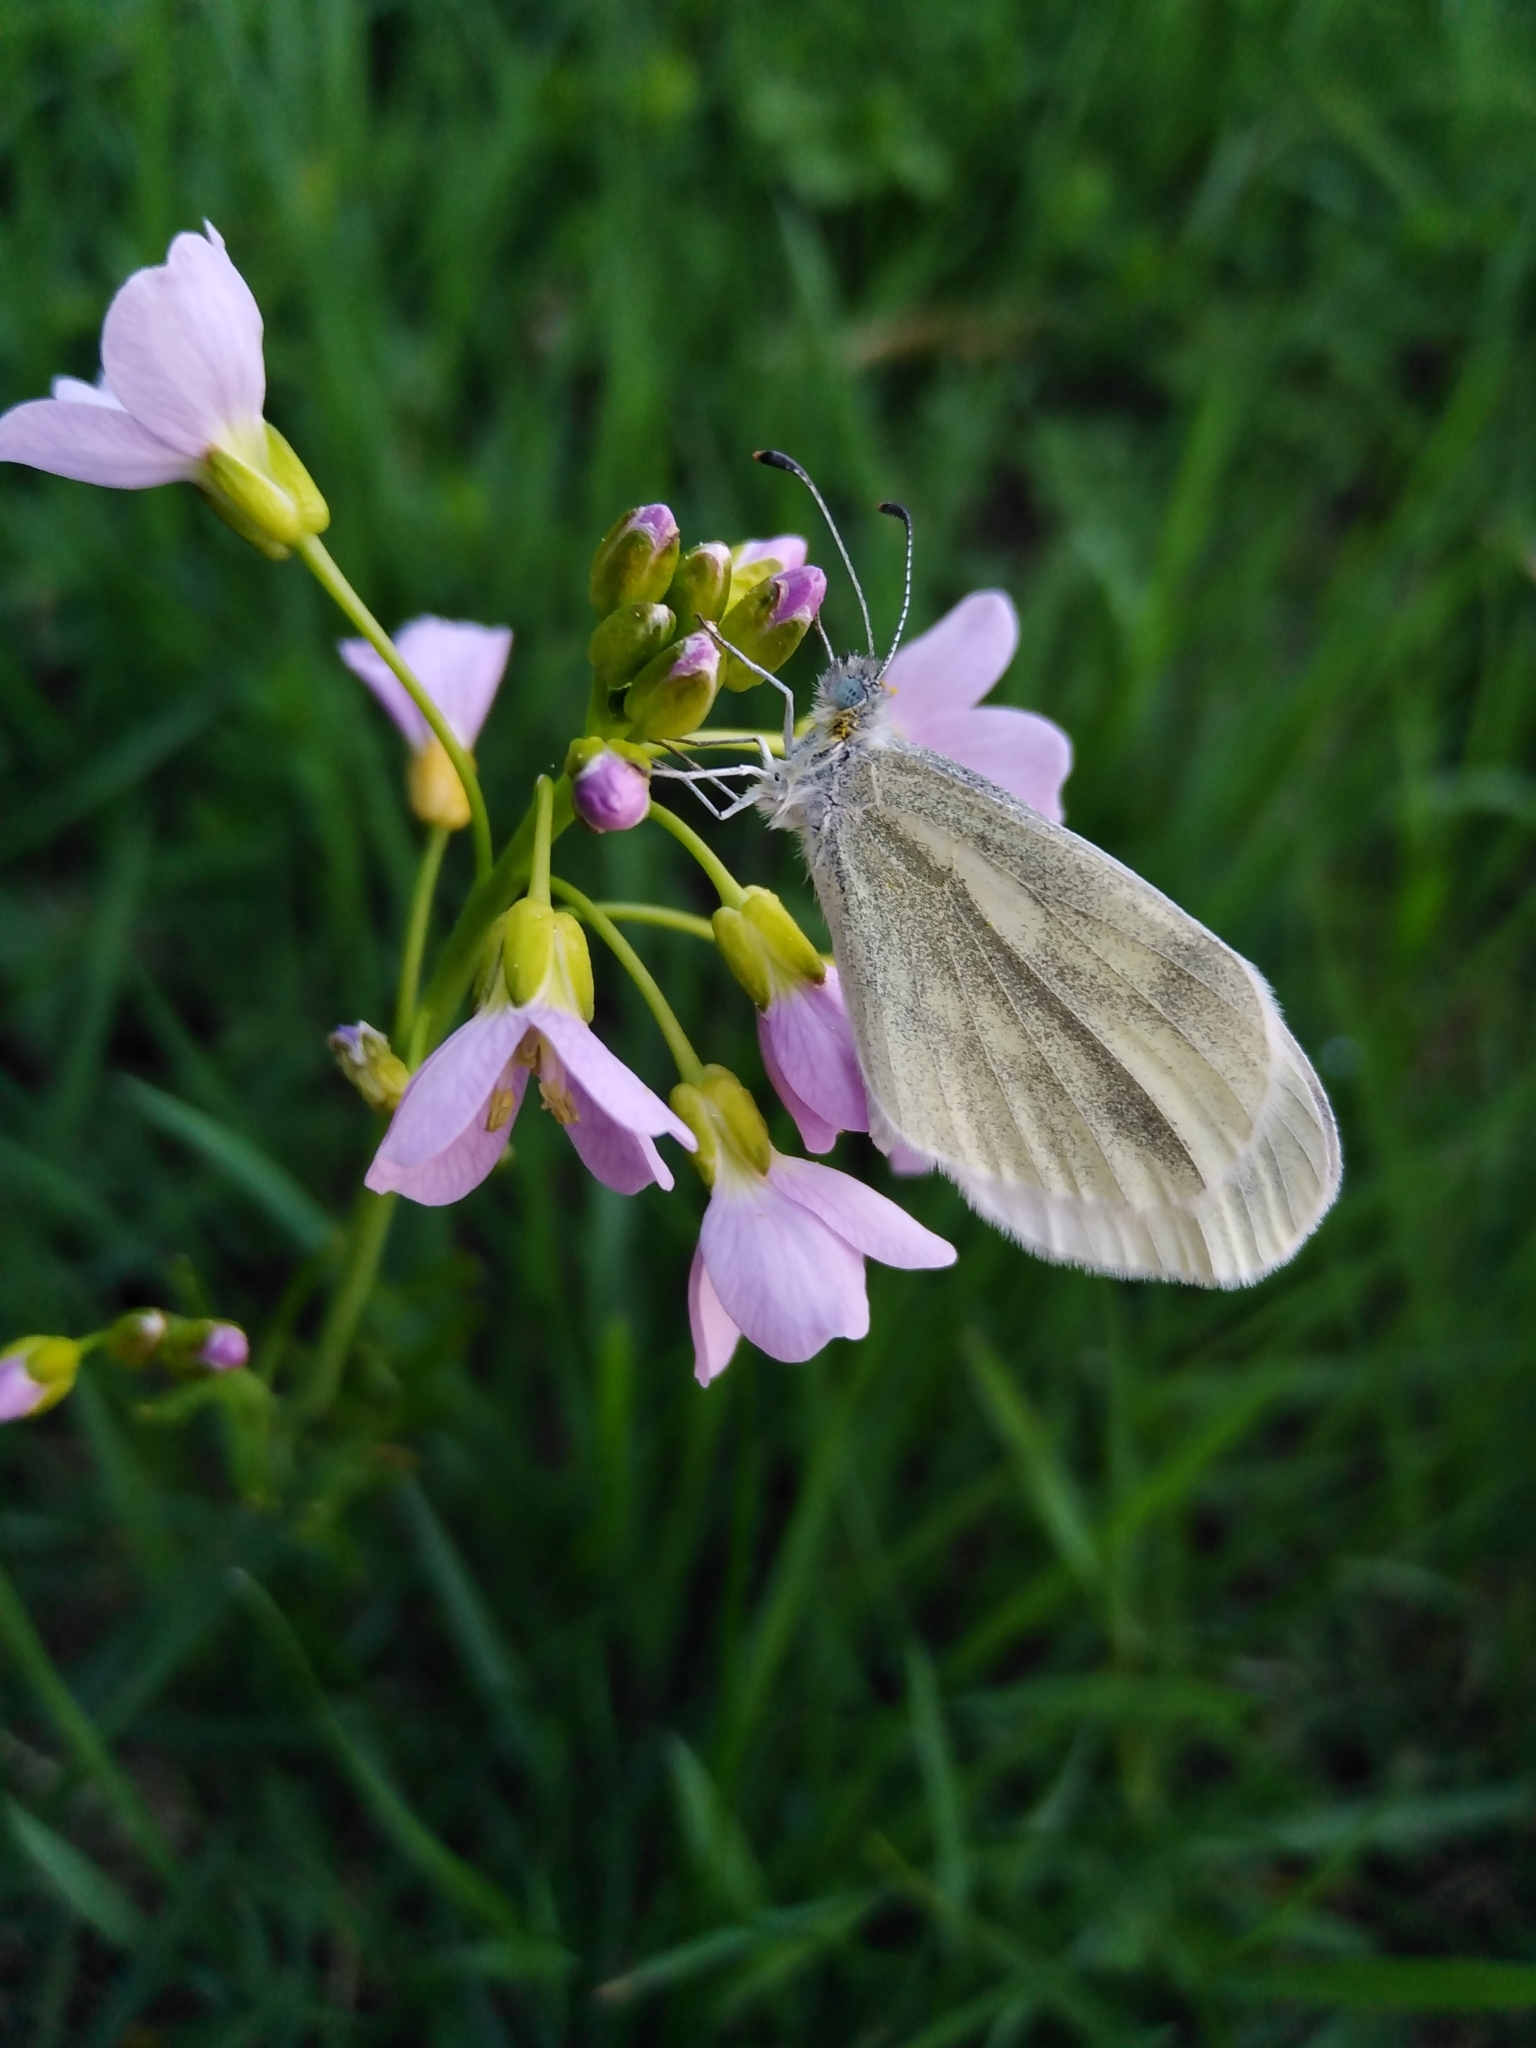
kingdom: Animalia
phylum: Arthropoda
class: Insecta
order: Lepidoptera
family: Pieridae
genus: Leptidea
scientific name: Leptidea
